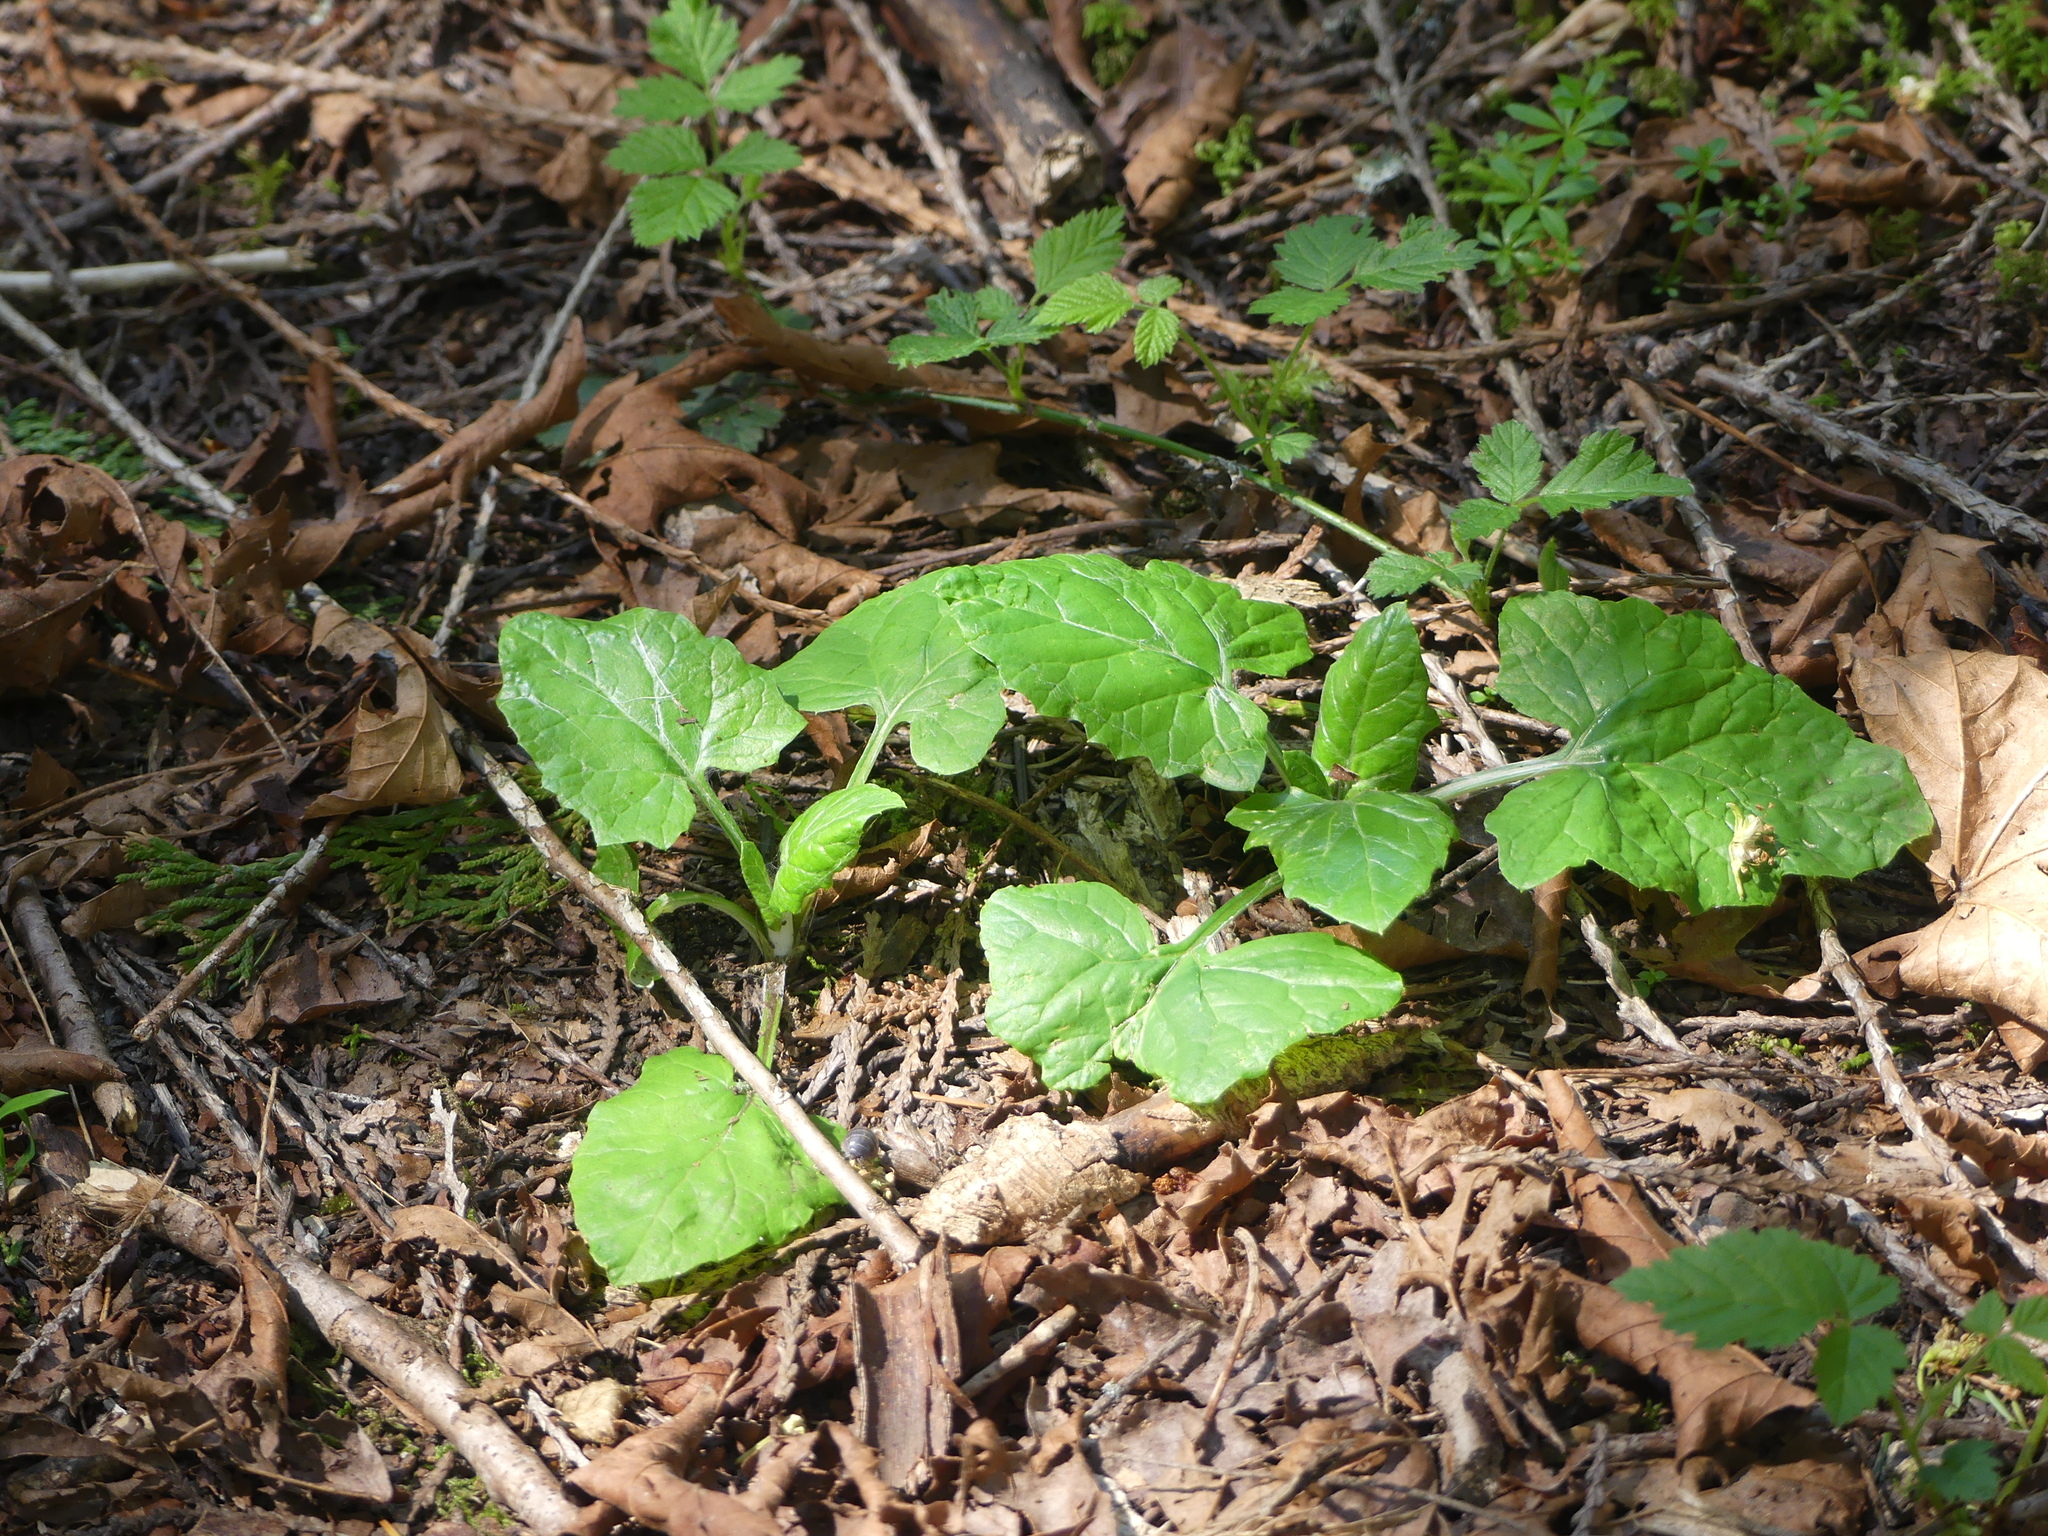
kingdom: Plantae
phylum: Tracheophyta
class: Magnoliopsida
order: Asterales
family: Asteraceae
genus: Adenocaulon
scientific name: Adenocaulon bicolor
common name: Trailplant
